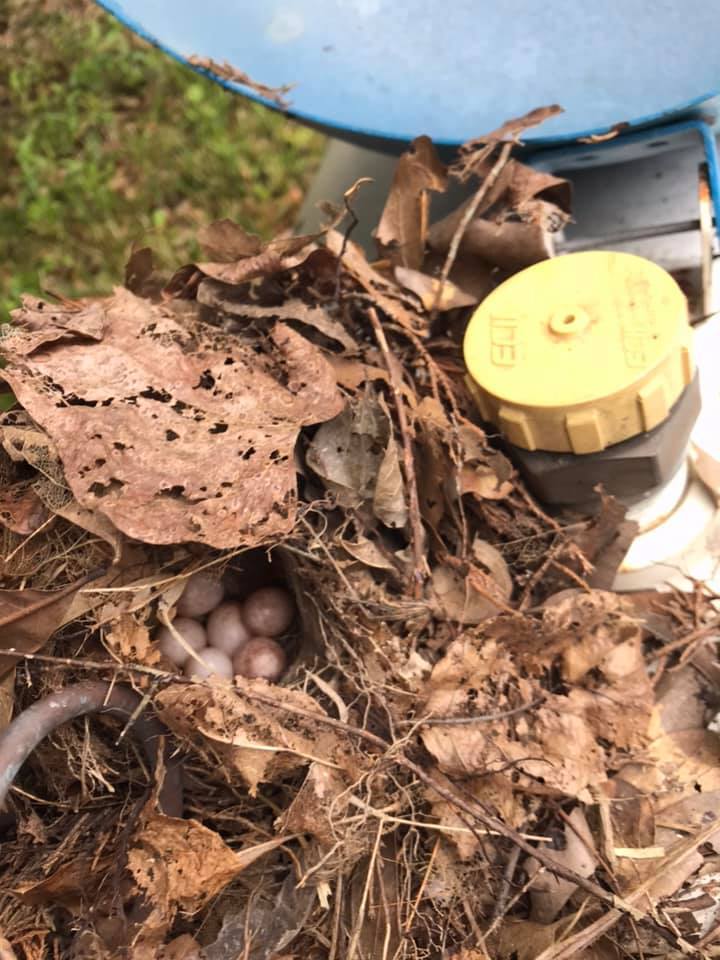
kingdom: Animalia
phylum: Chordata
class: Aves
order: Passeriformes
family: Troglodytidae
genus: Thryothorus
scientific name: Thryothorus ludovicianus
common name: Carolina wren
